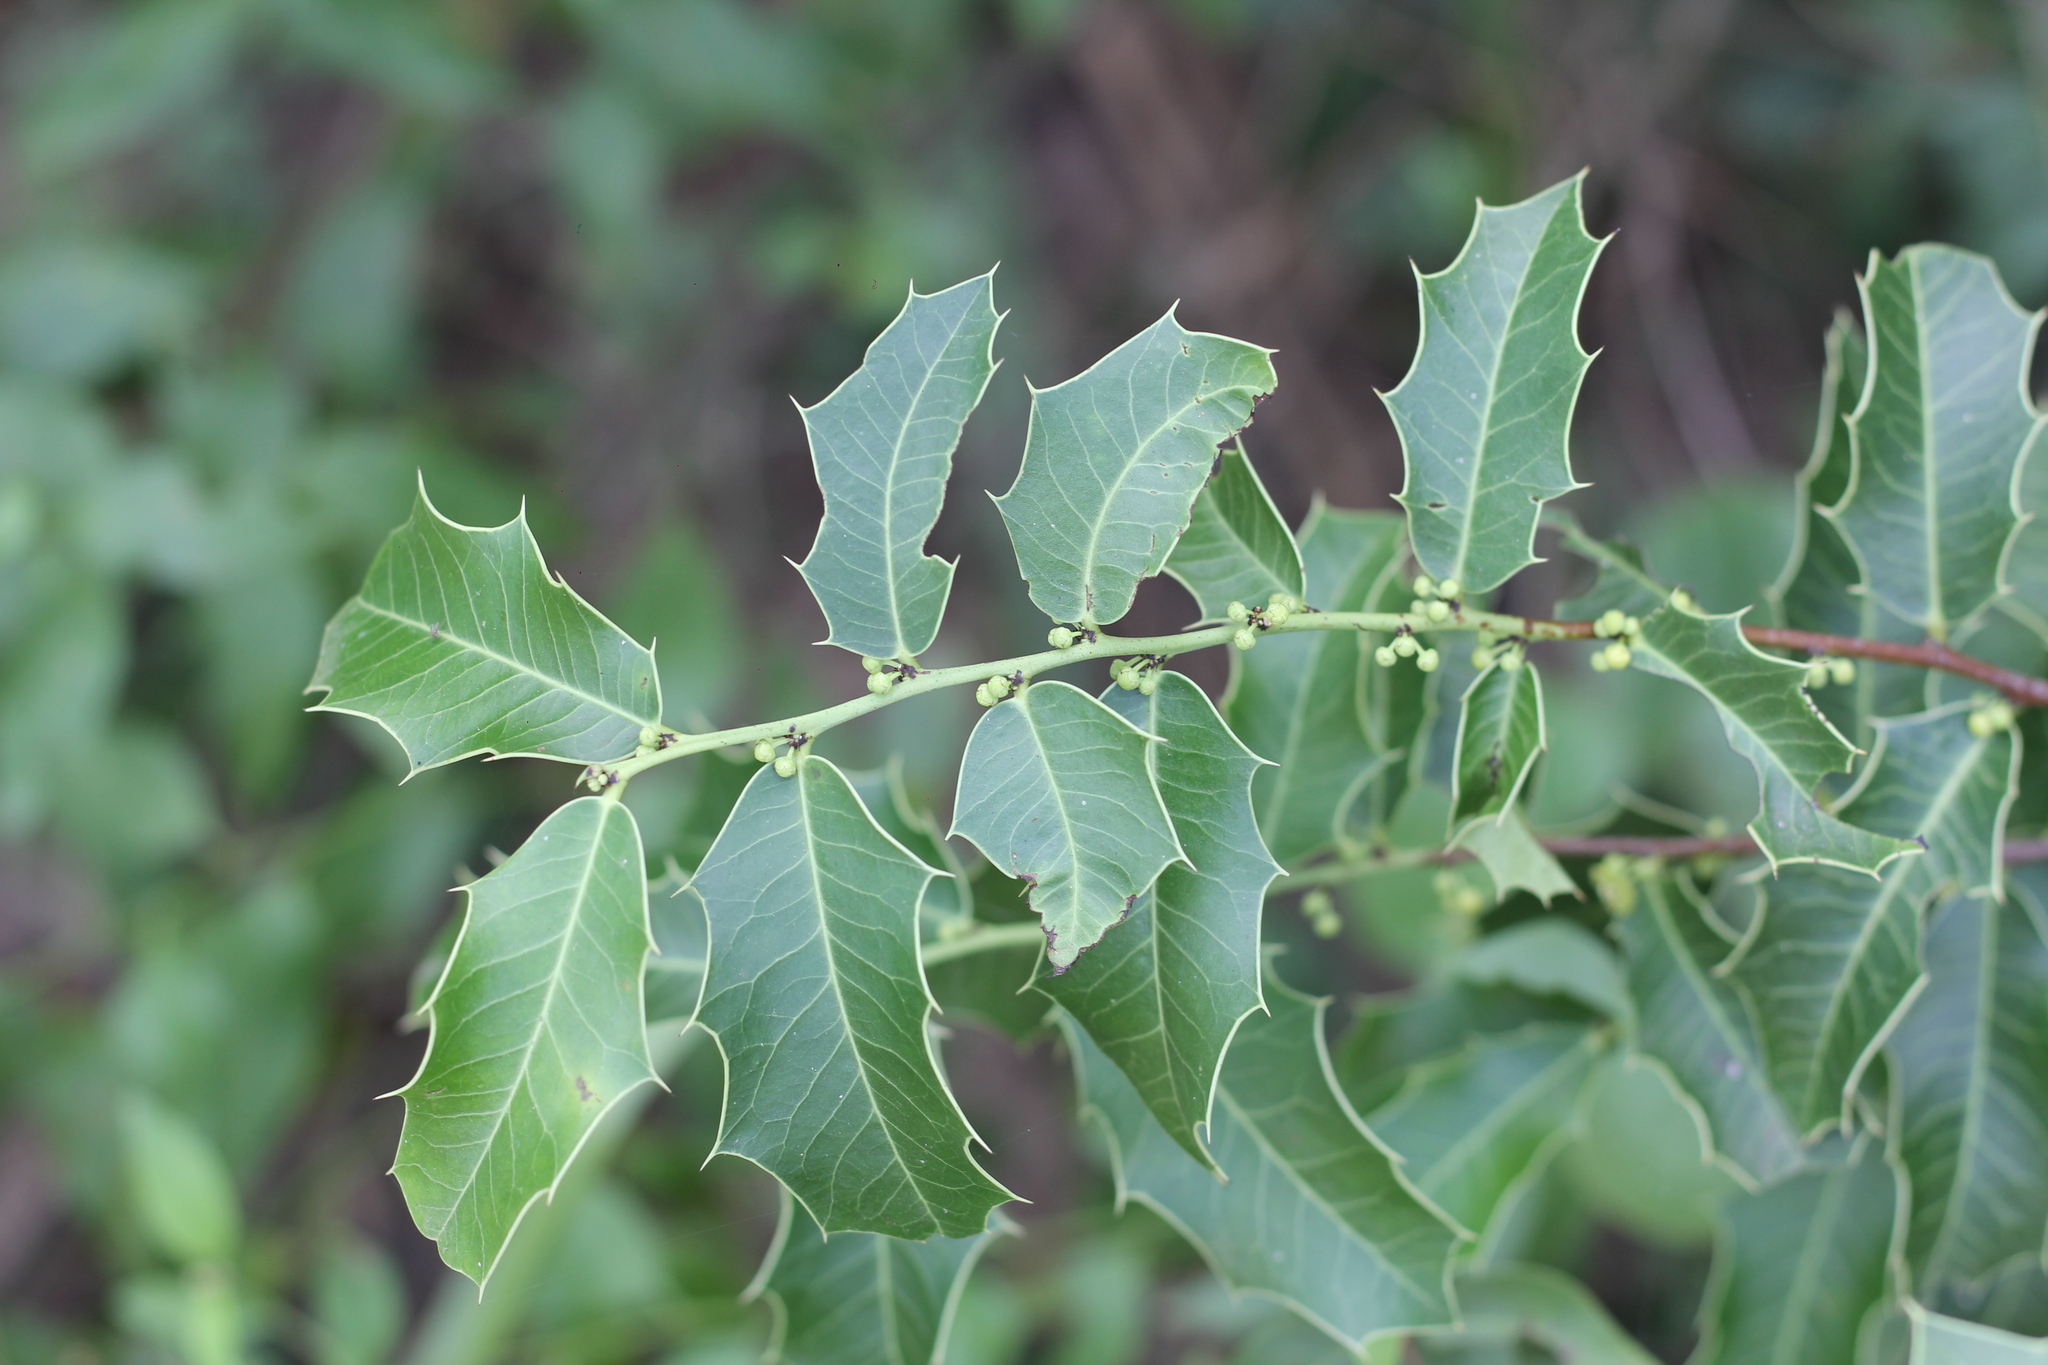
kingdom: Plantae
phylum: Tracheophyta
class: Magnoliopsida
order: Celastrales
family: Celastraceae
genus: Monteverdia
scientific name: Monteverdia
